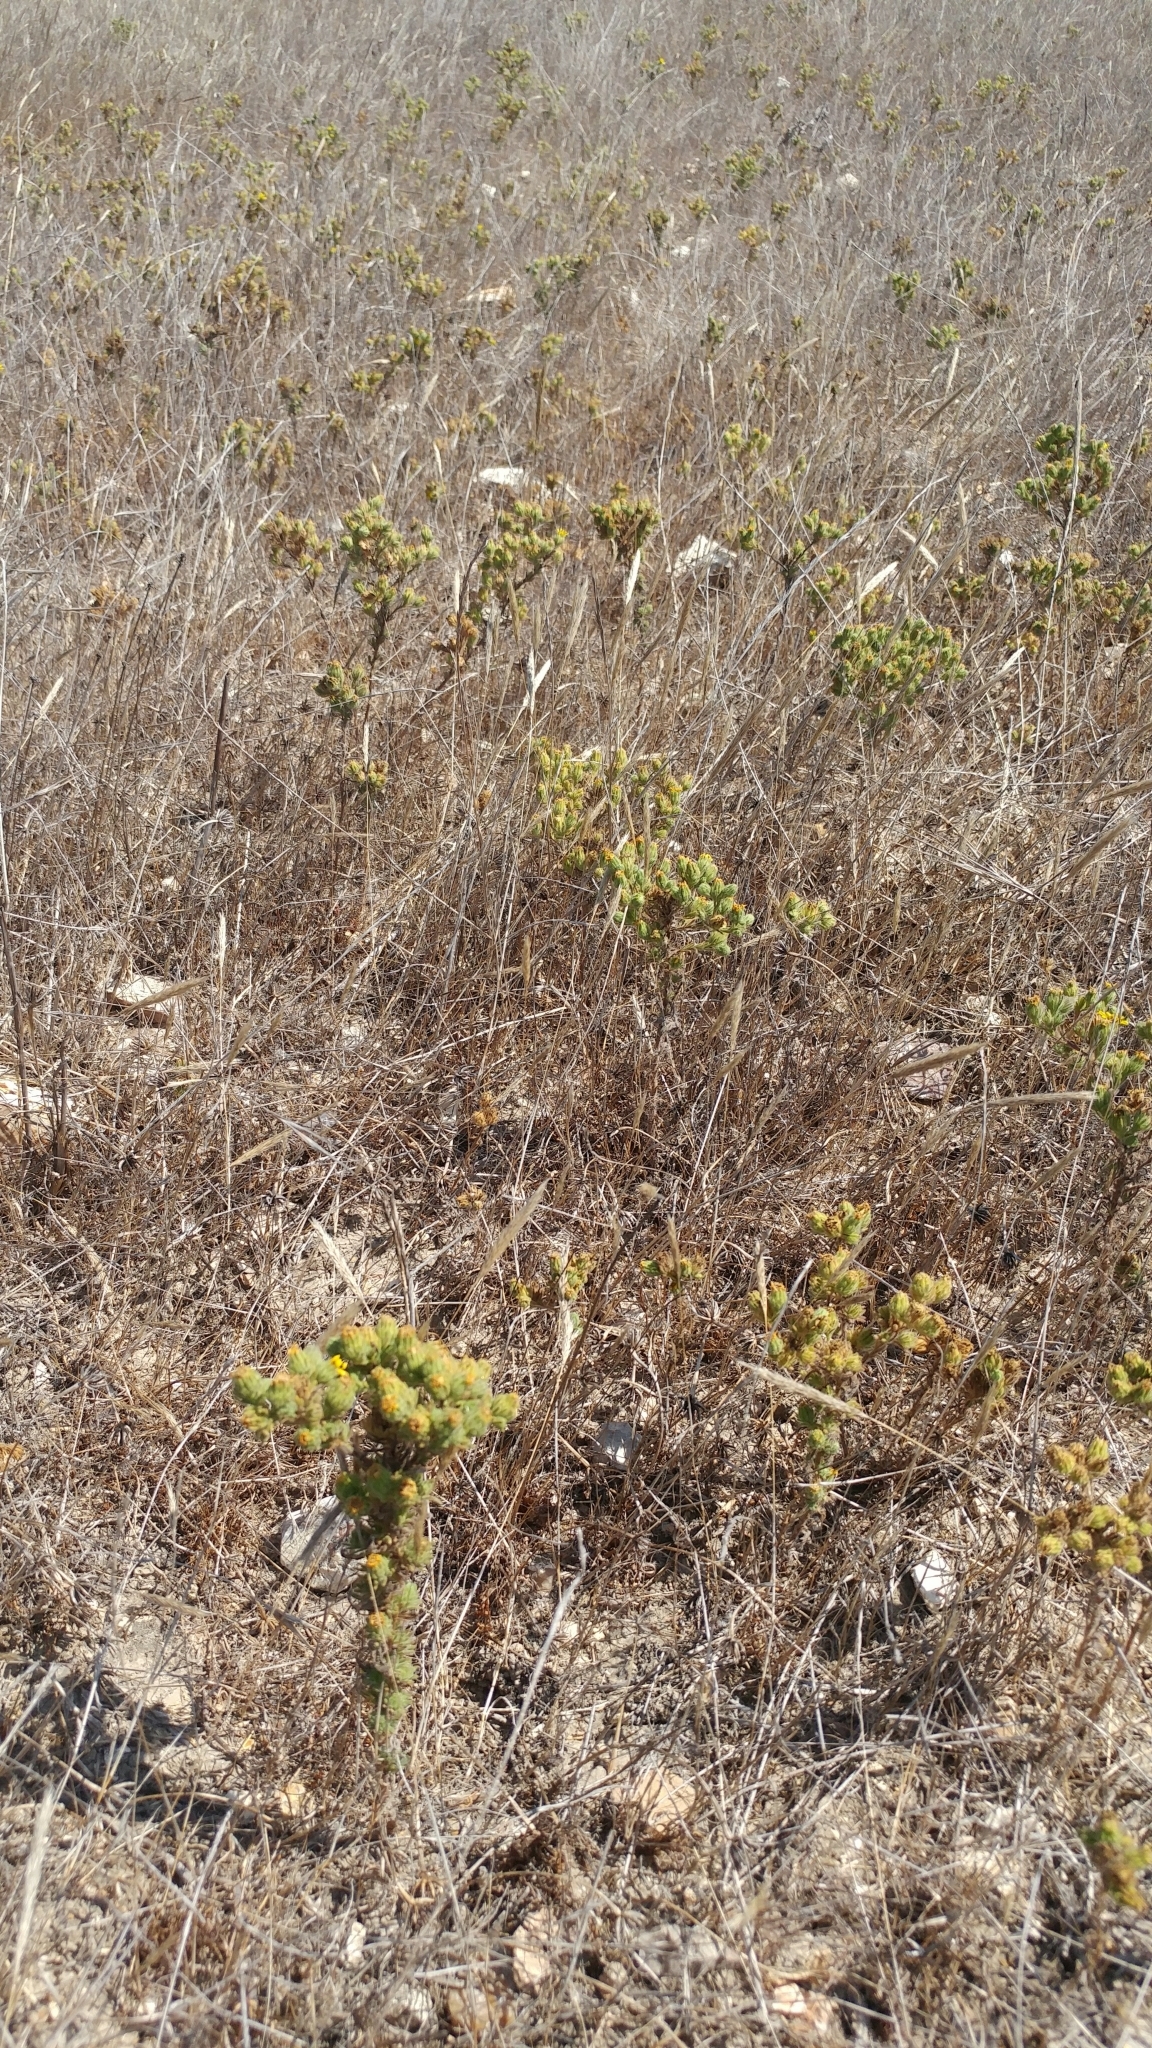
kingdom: Plantae
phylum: Tracheophyta
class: Magnoliopsida
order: Asterales
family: Asteraceae
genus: Deinandra
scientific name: Deinandra increscens
